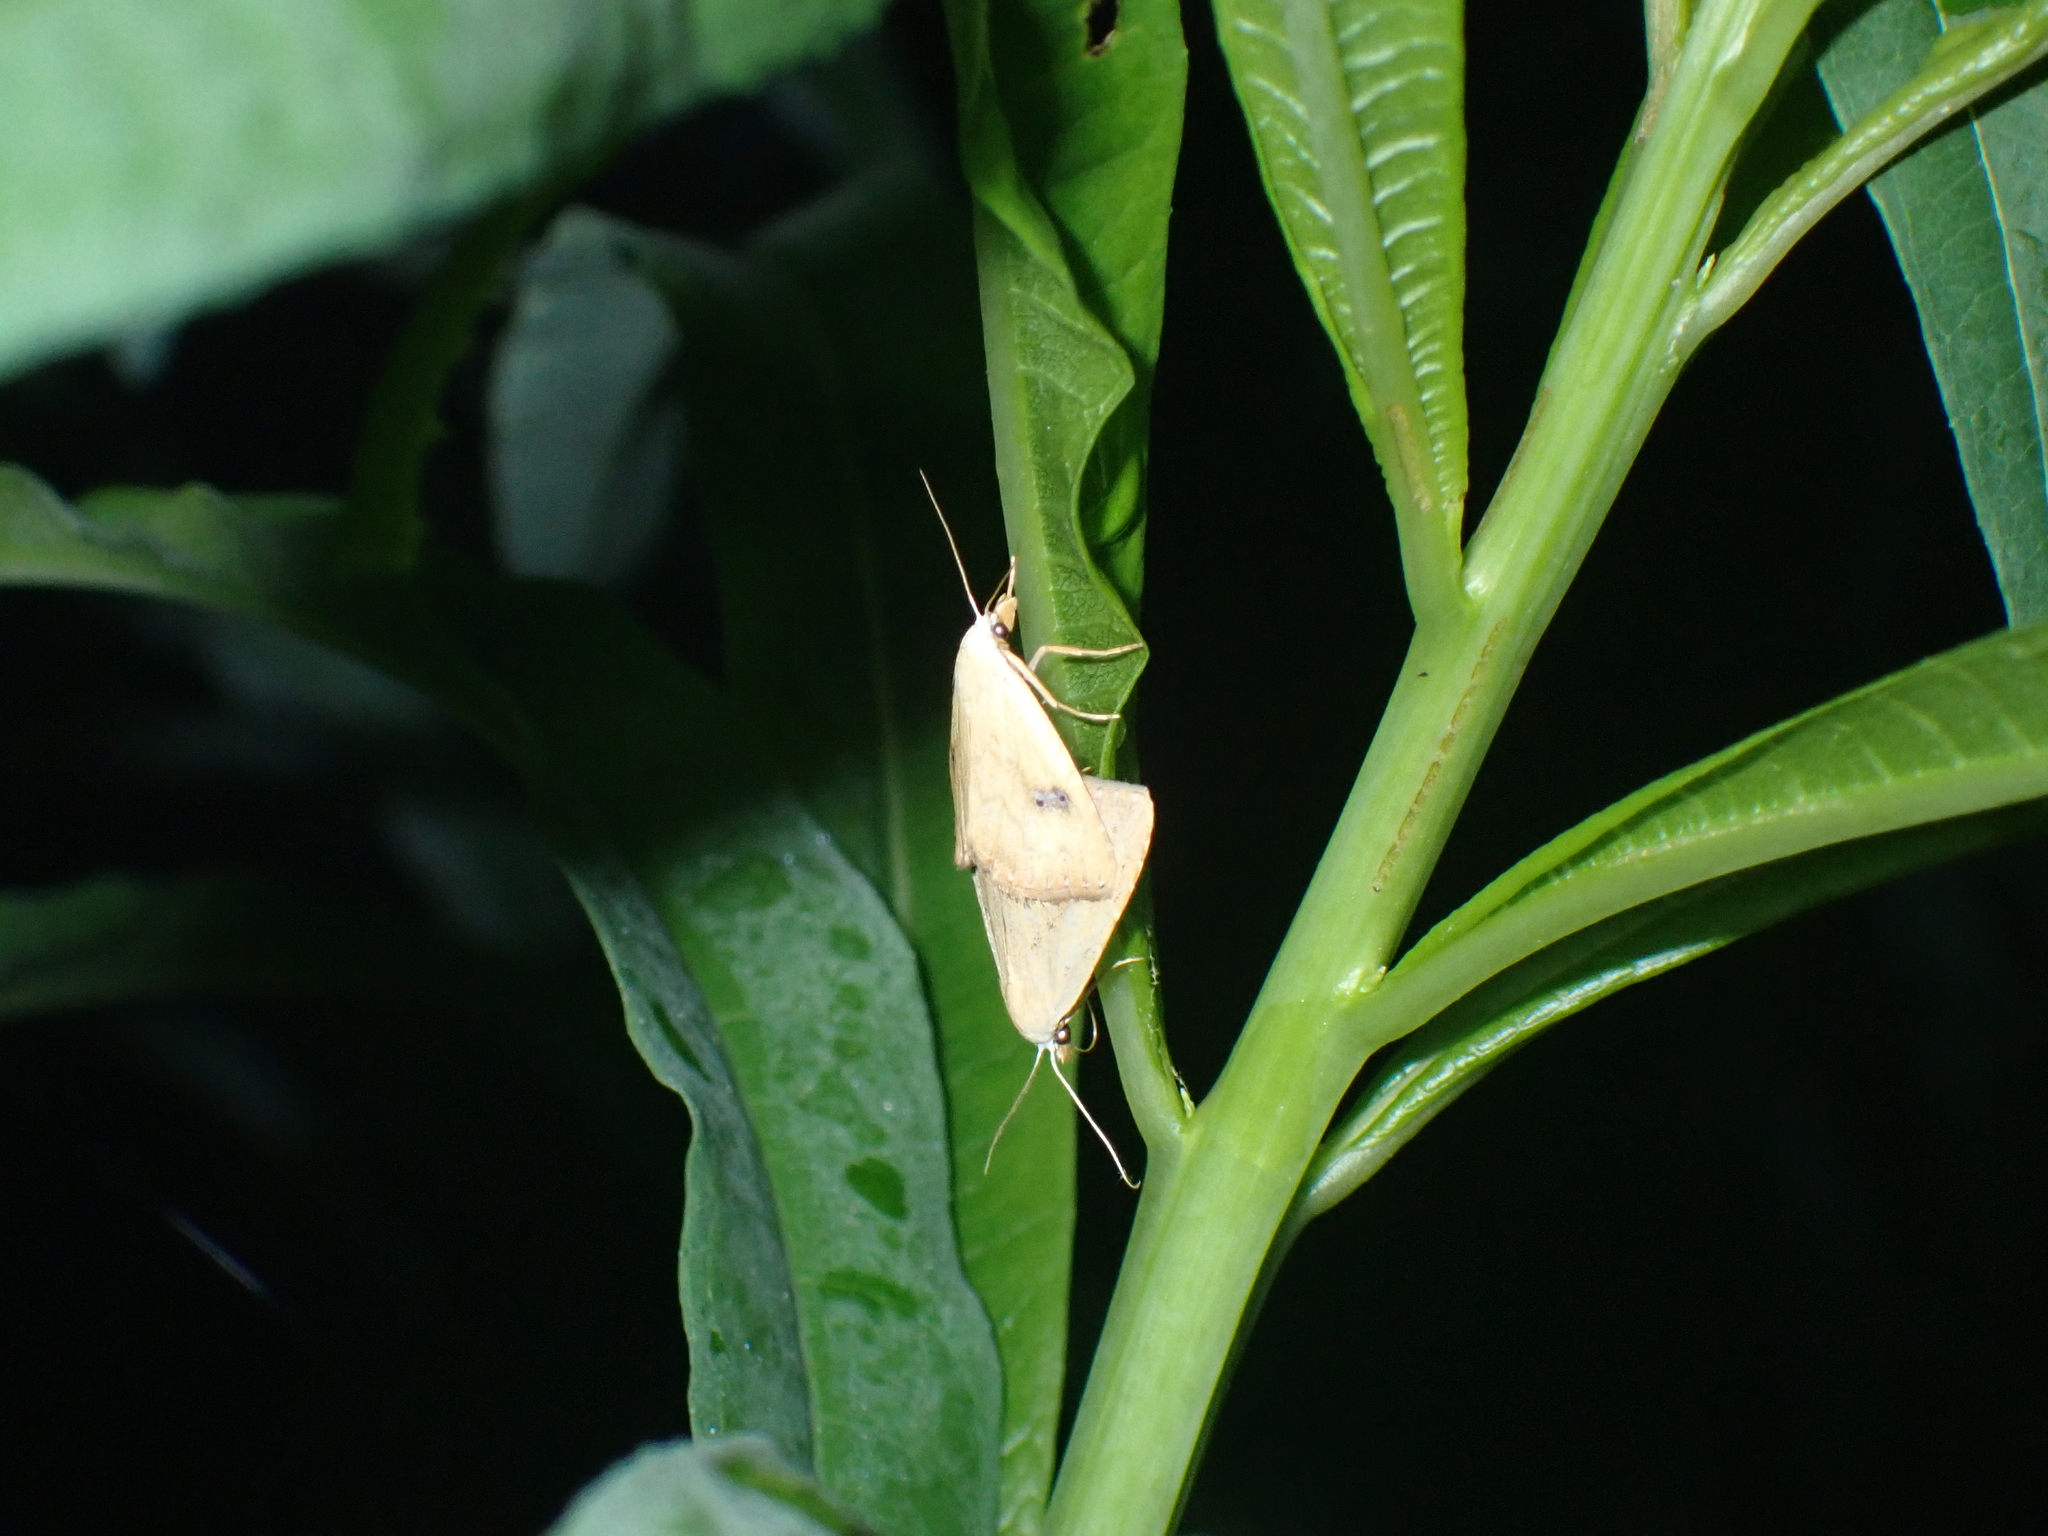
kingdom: Animalia
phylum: Arthropoda
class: Insecta
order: Lepidoptera
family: Erebidae
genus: Rivula
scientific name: Rivula sericealis
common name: Straw dot
